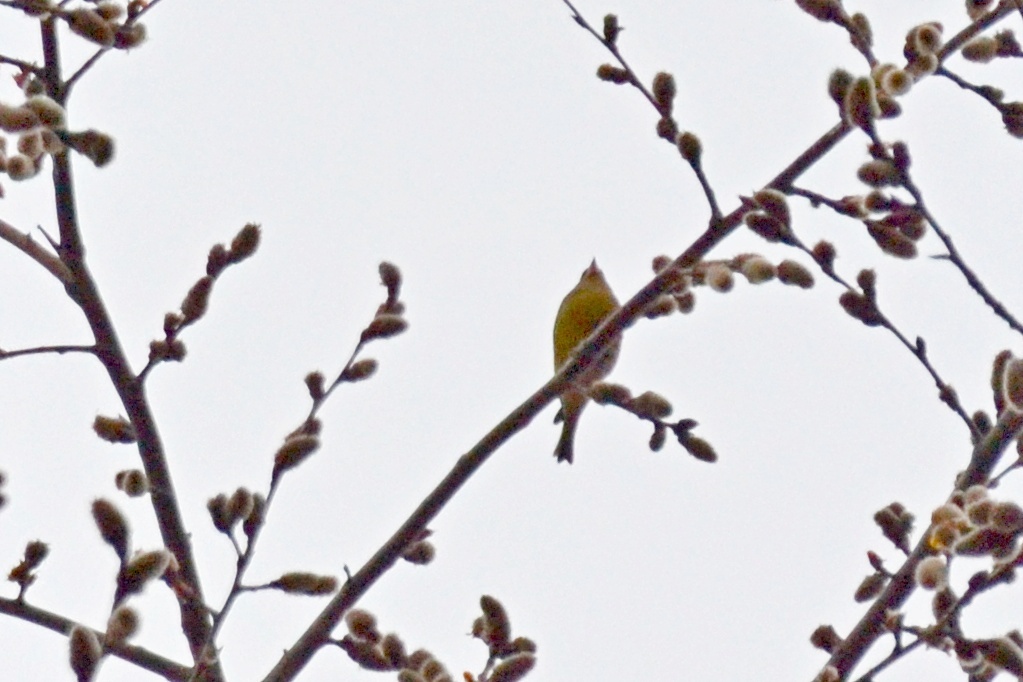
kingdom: Plantae
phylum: Tracheophyta
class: Liliopsida
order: Poales
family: Poaceae
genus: Chloris
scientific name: Chloris chloris
